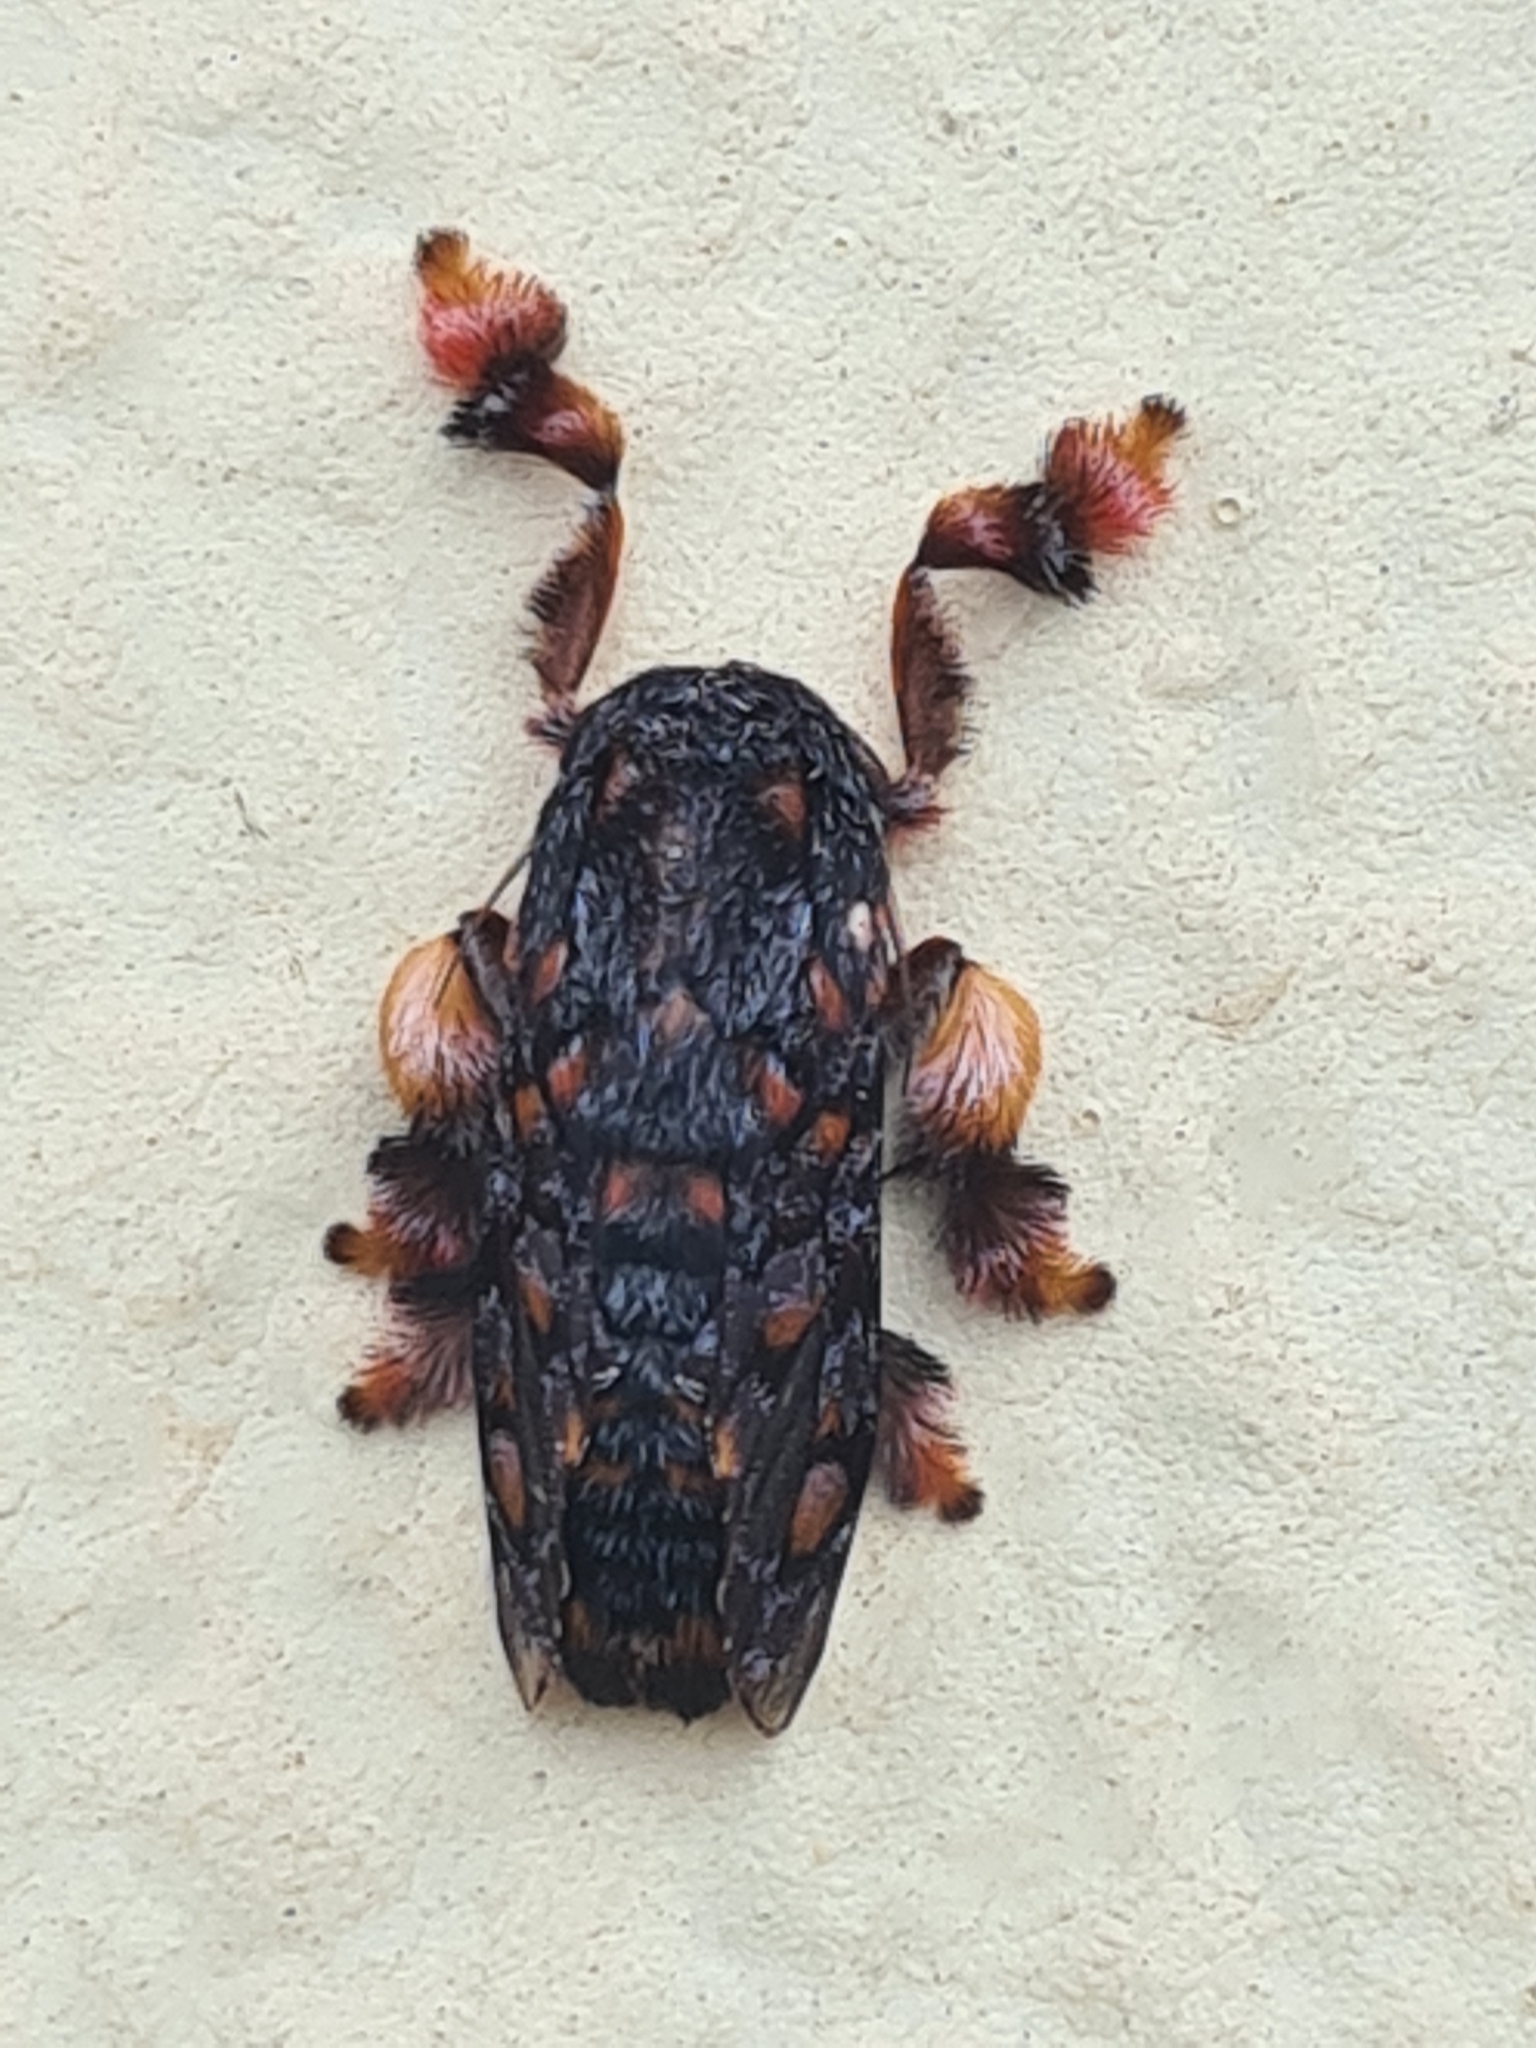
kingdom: Animalia
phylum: Arthropoda
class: Insecta
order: Lepidoptera
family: Limacodidae
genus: Phobetron
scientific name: Phobetron hipparchia
